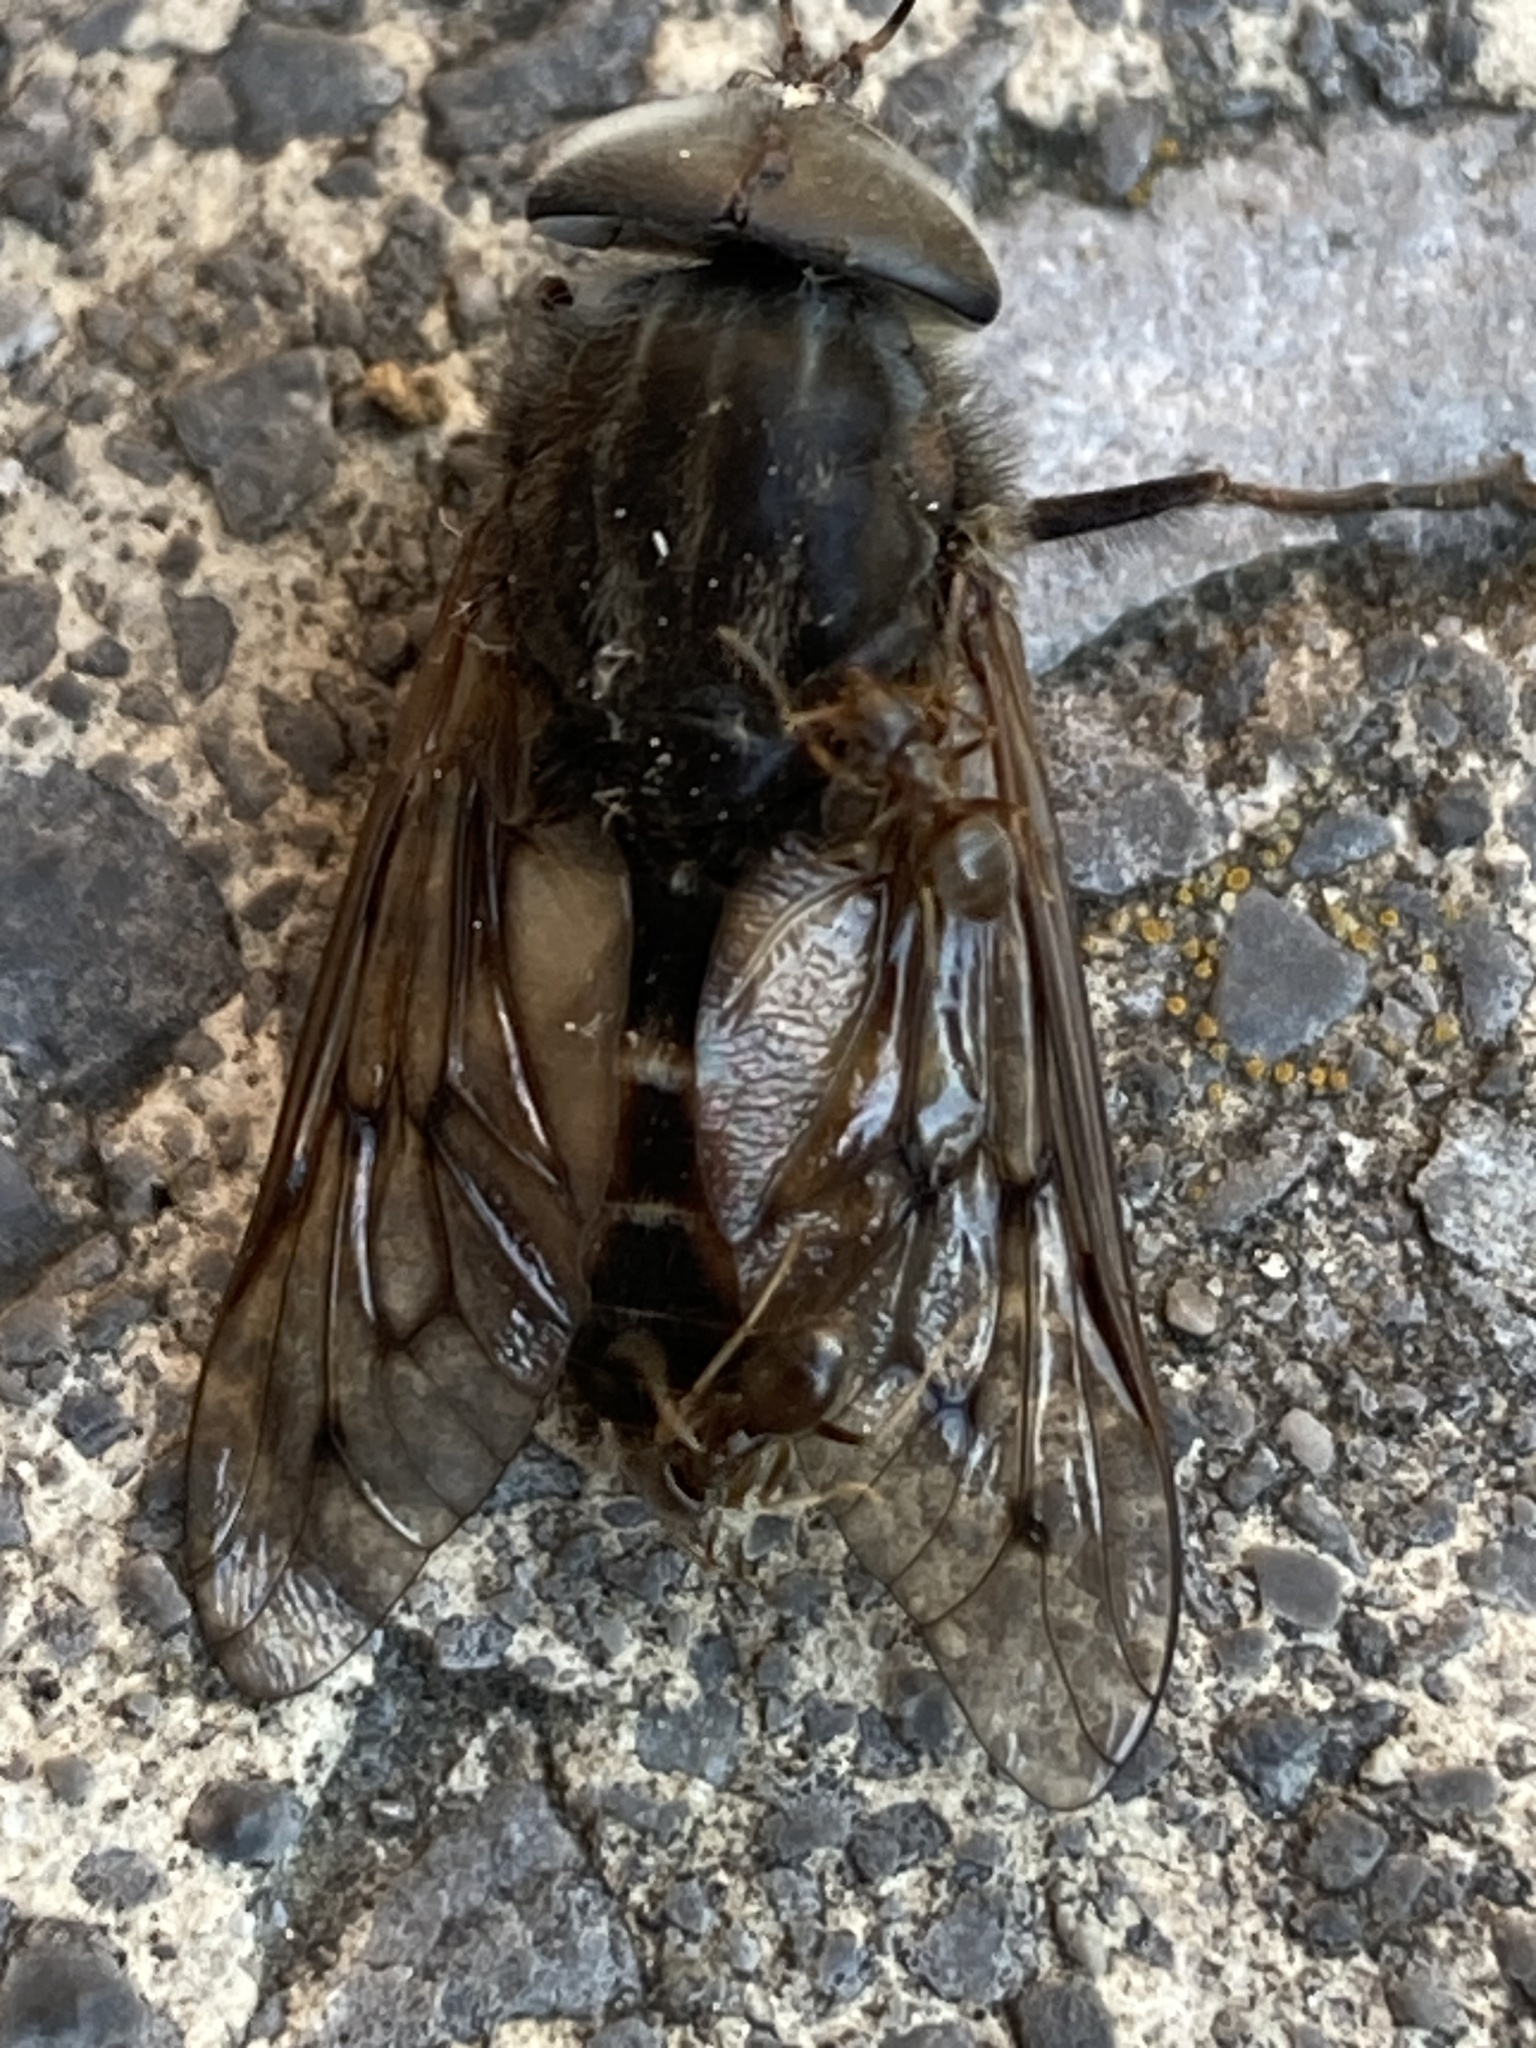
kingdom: Animalia
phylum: Arthropoda
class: Insecta
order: Hymenoptera
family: Formicidae
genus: Lasius
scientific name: Lasius neoniger
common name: Turfgrass ant
